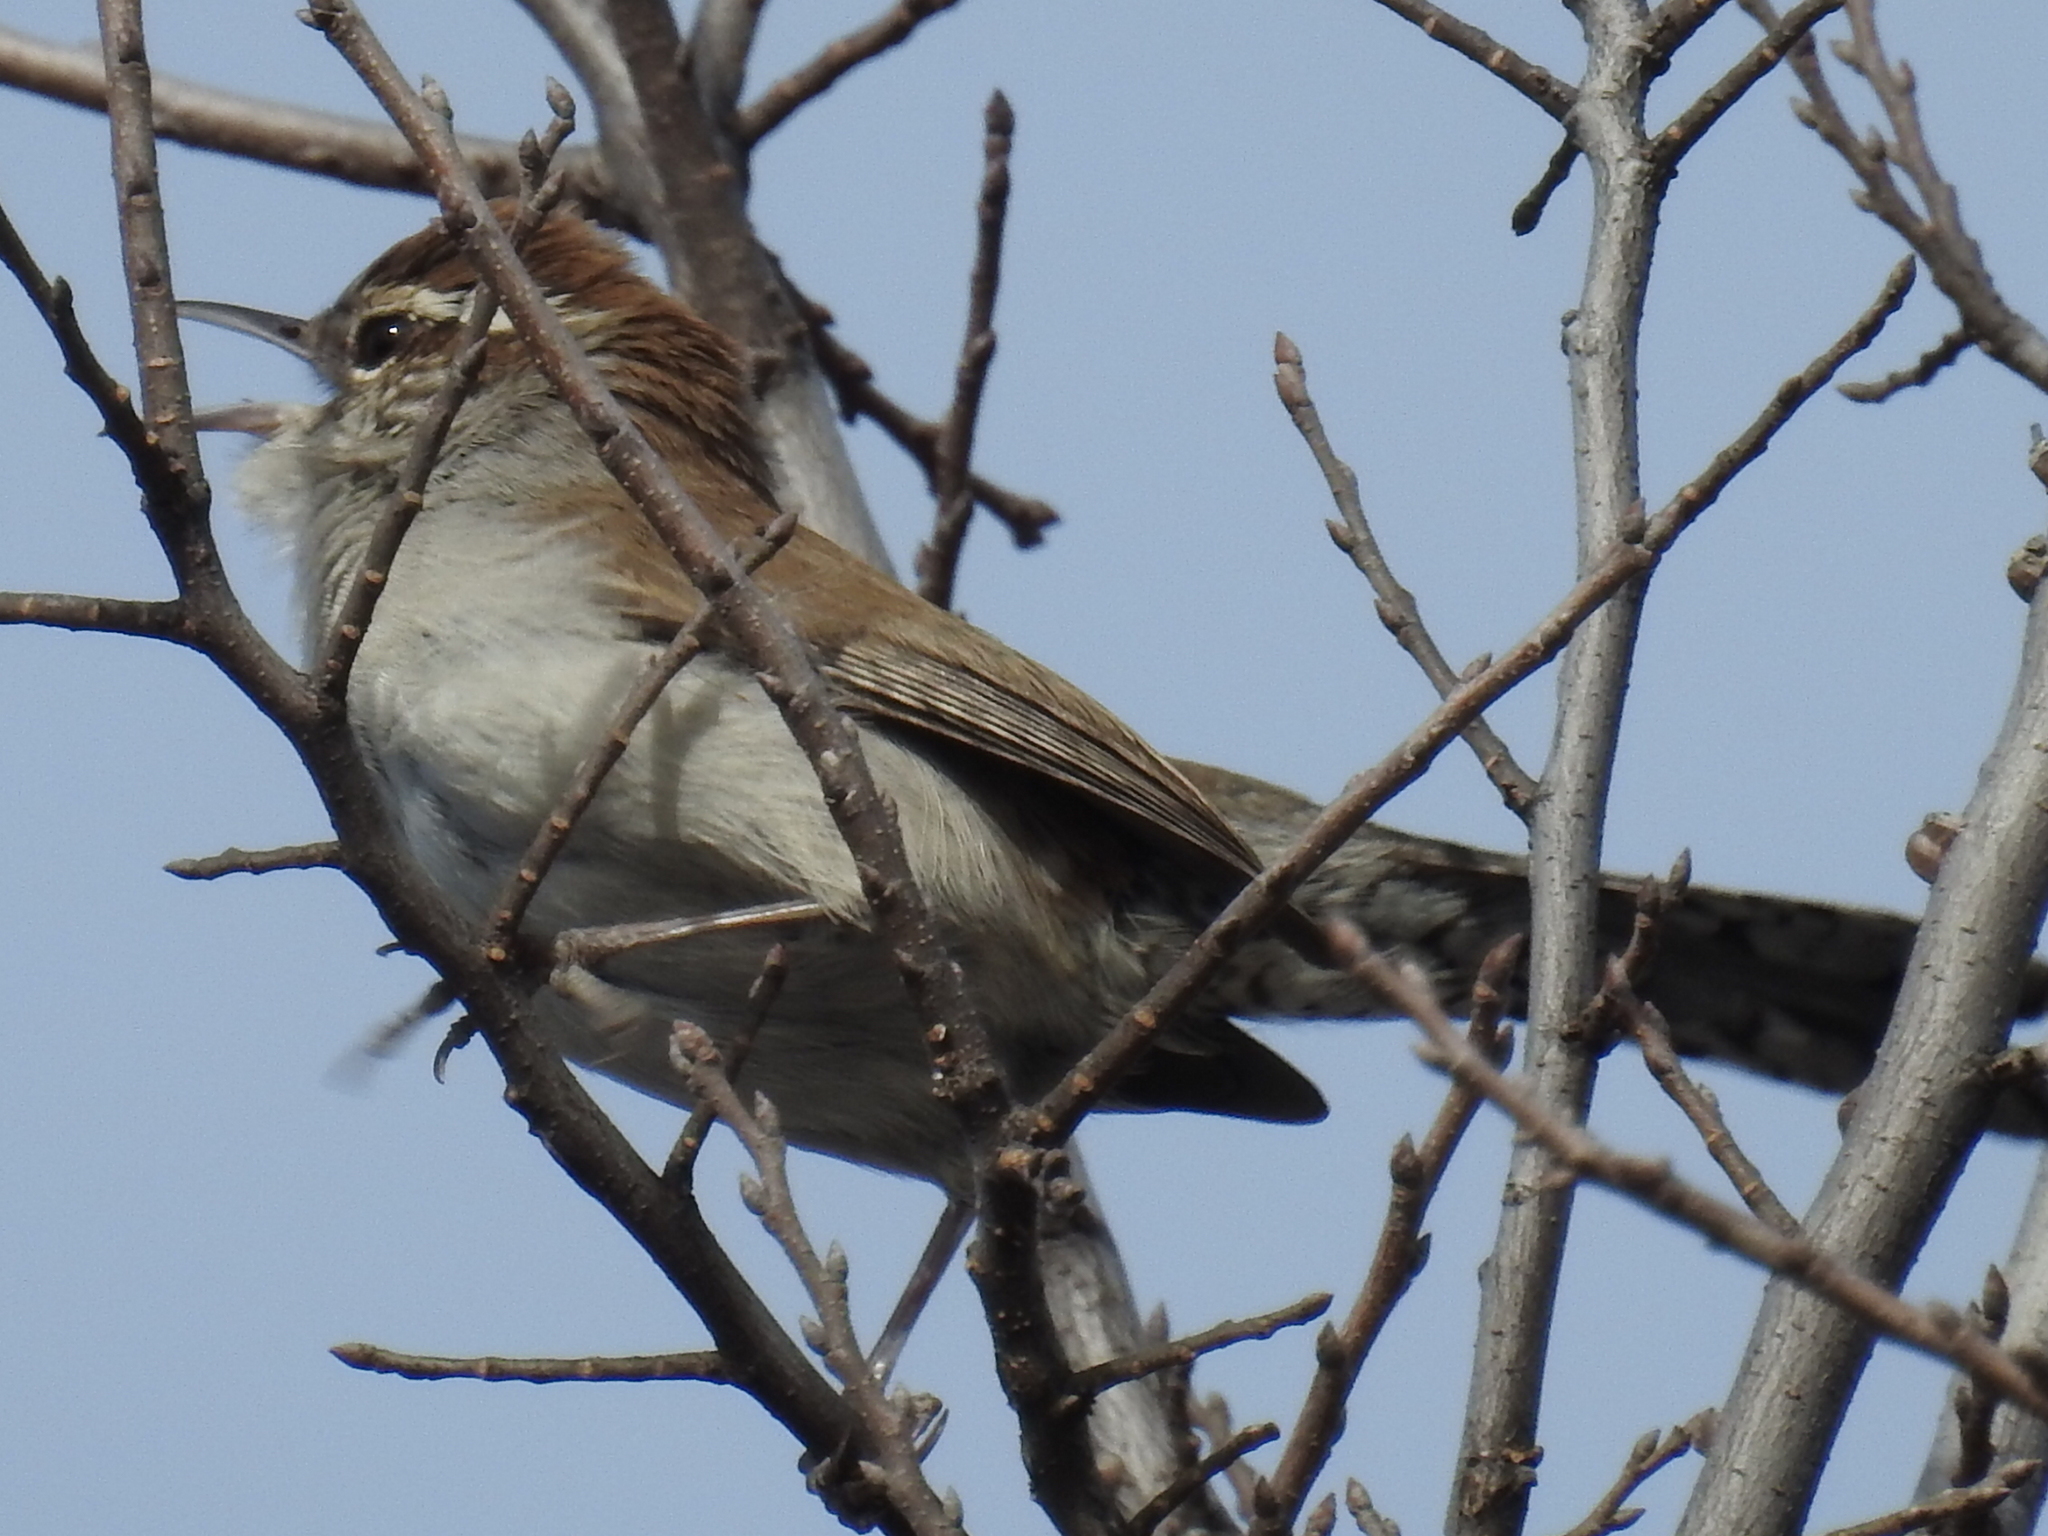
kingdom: Animalia
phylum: Chordata
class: Aves
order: Passeriformes
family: Troglodytidae
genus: Thryomanes
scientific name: Thryomanes bewickii
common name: Bewick's wren
